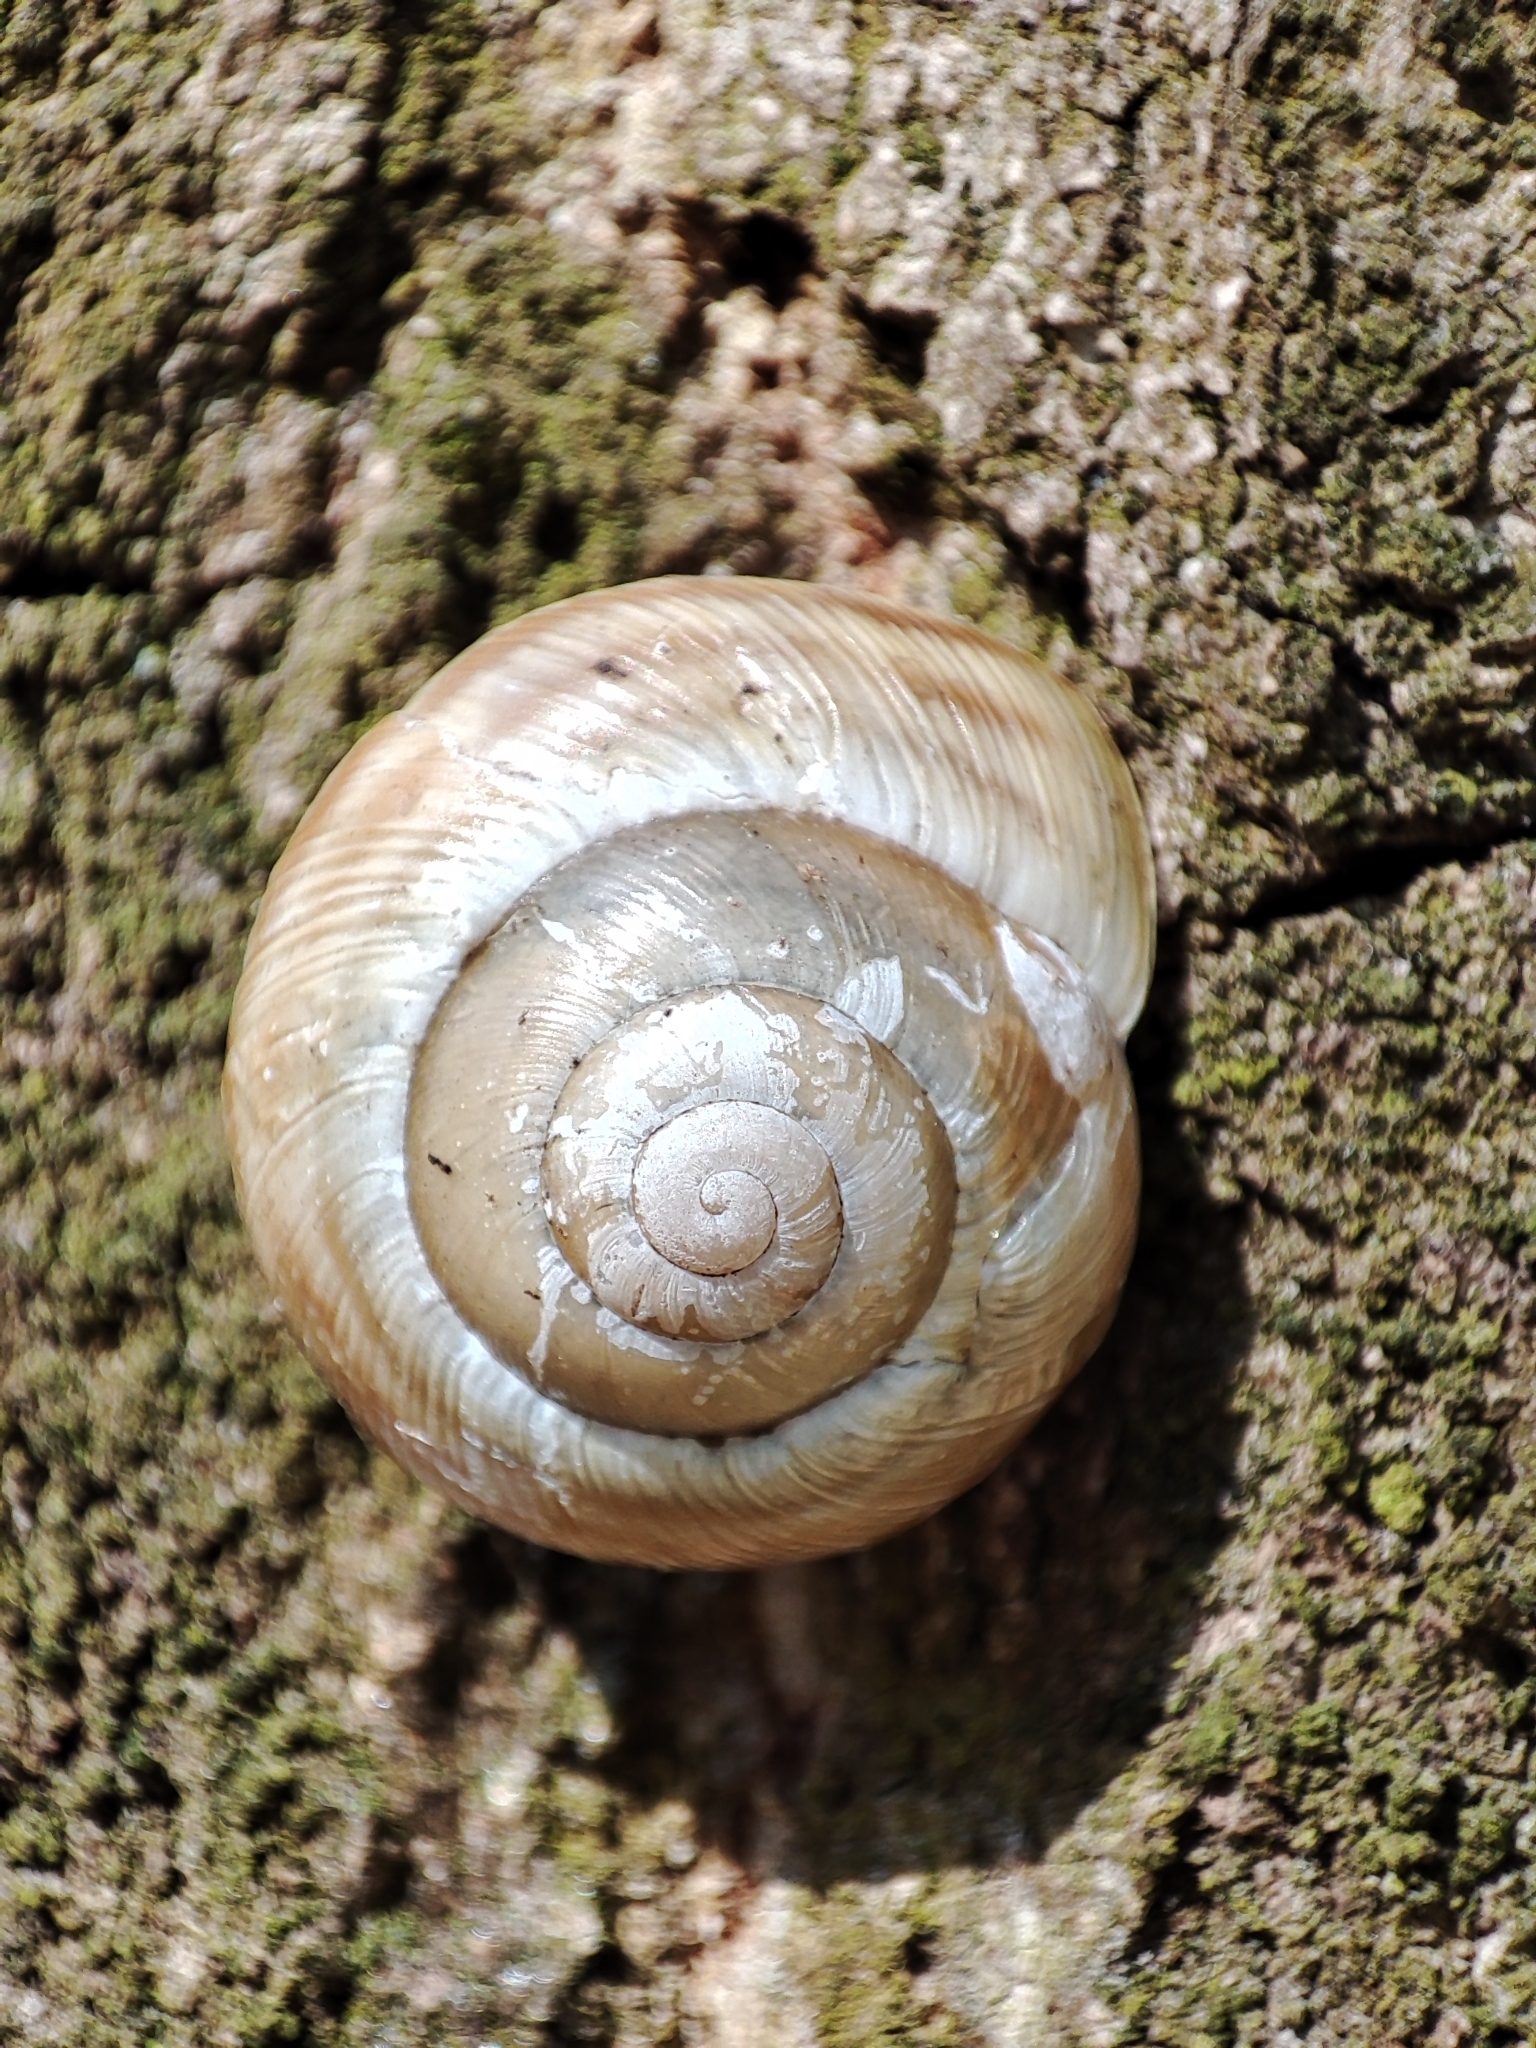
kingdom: Animalia
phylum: Mollusca
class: Gastropoda
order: Stylommatophora
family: Helicidae
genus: Caucasotachea
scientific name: Caucasotachea vindobonensis
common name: European helicid land snail
